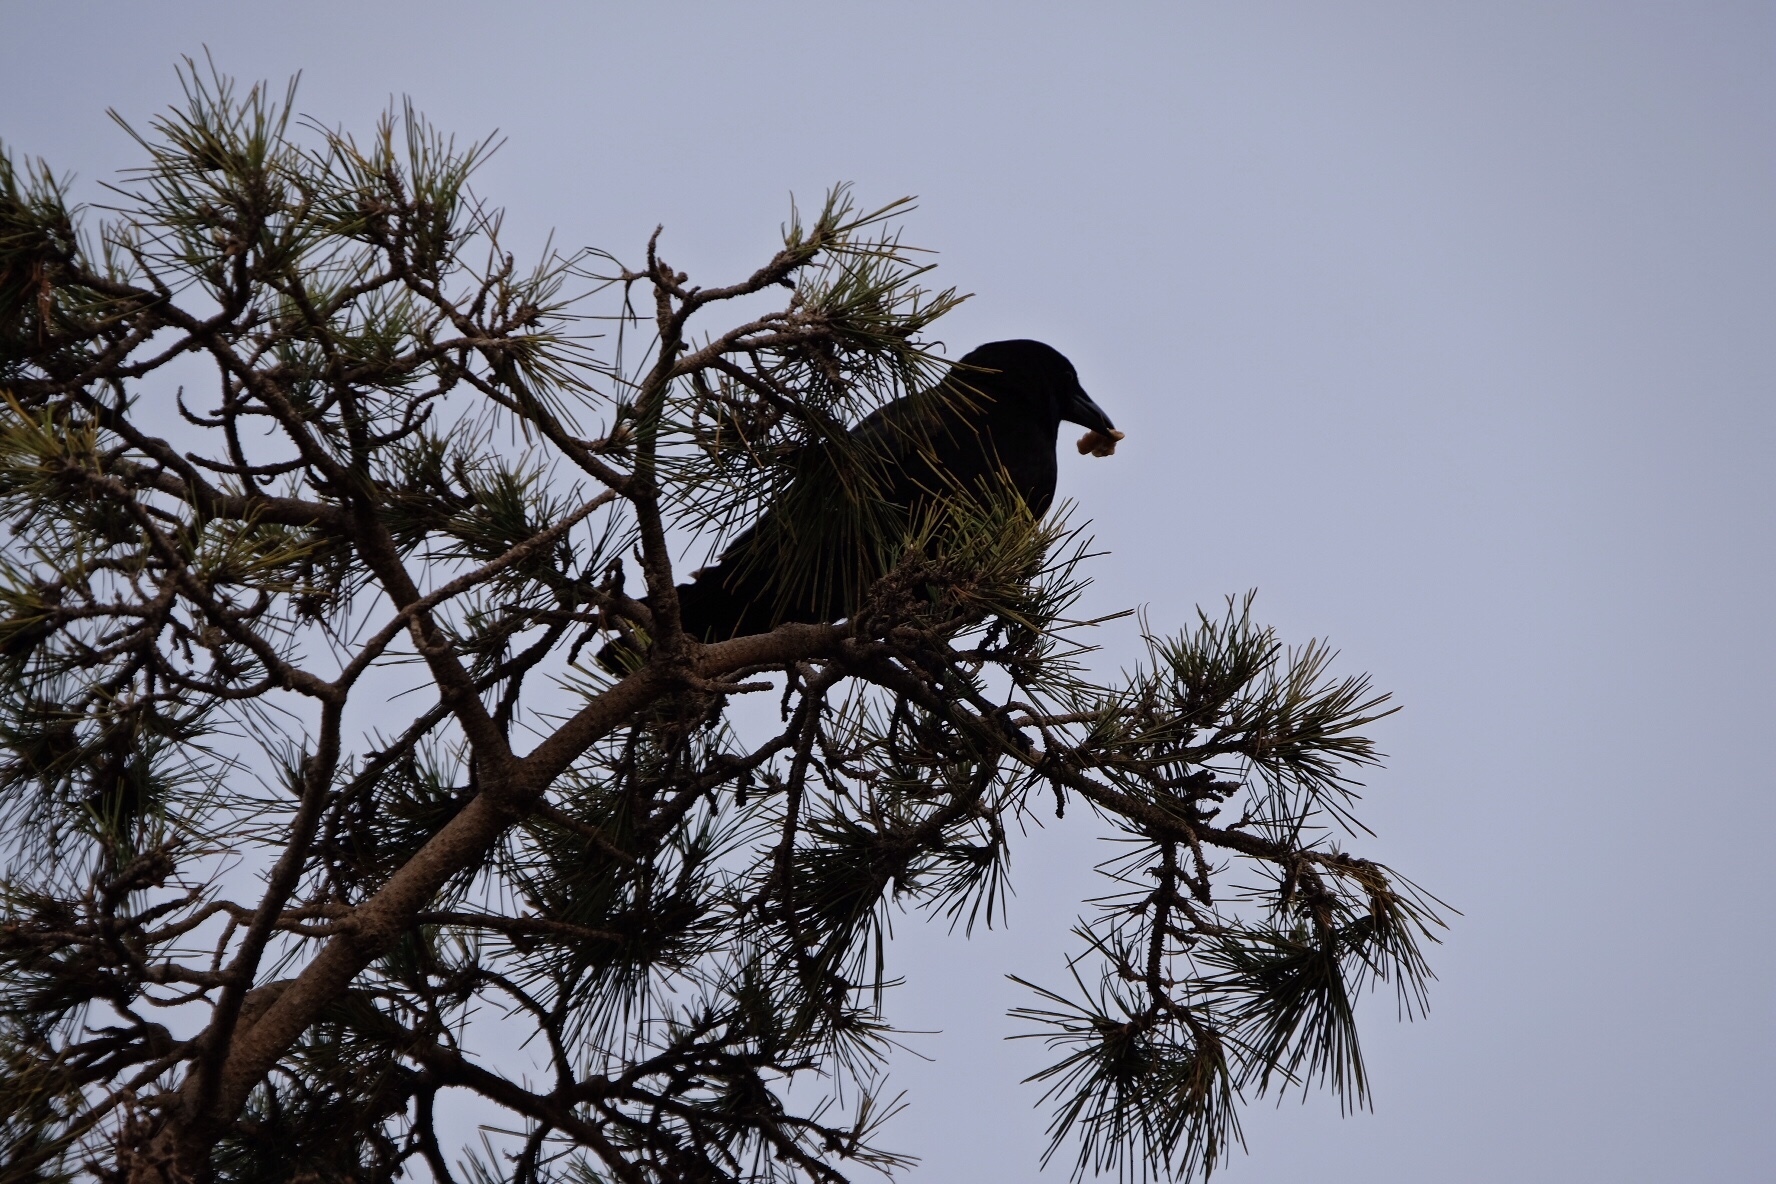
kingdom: Animalia
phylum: Chordata
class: Aves
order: Passeriformes
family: Corvidae
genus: Corvus
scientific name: Corvus corax
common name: Common raven
